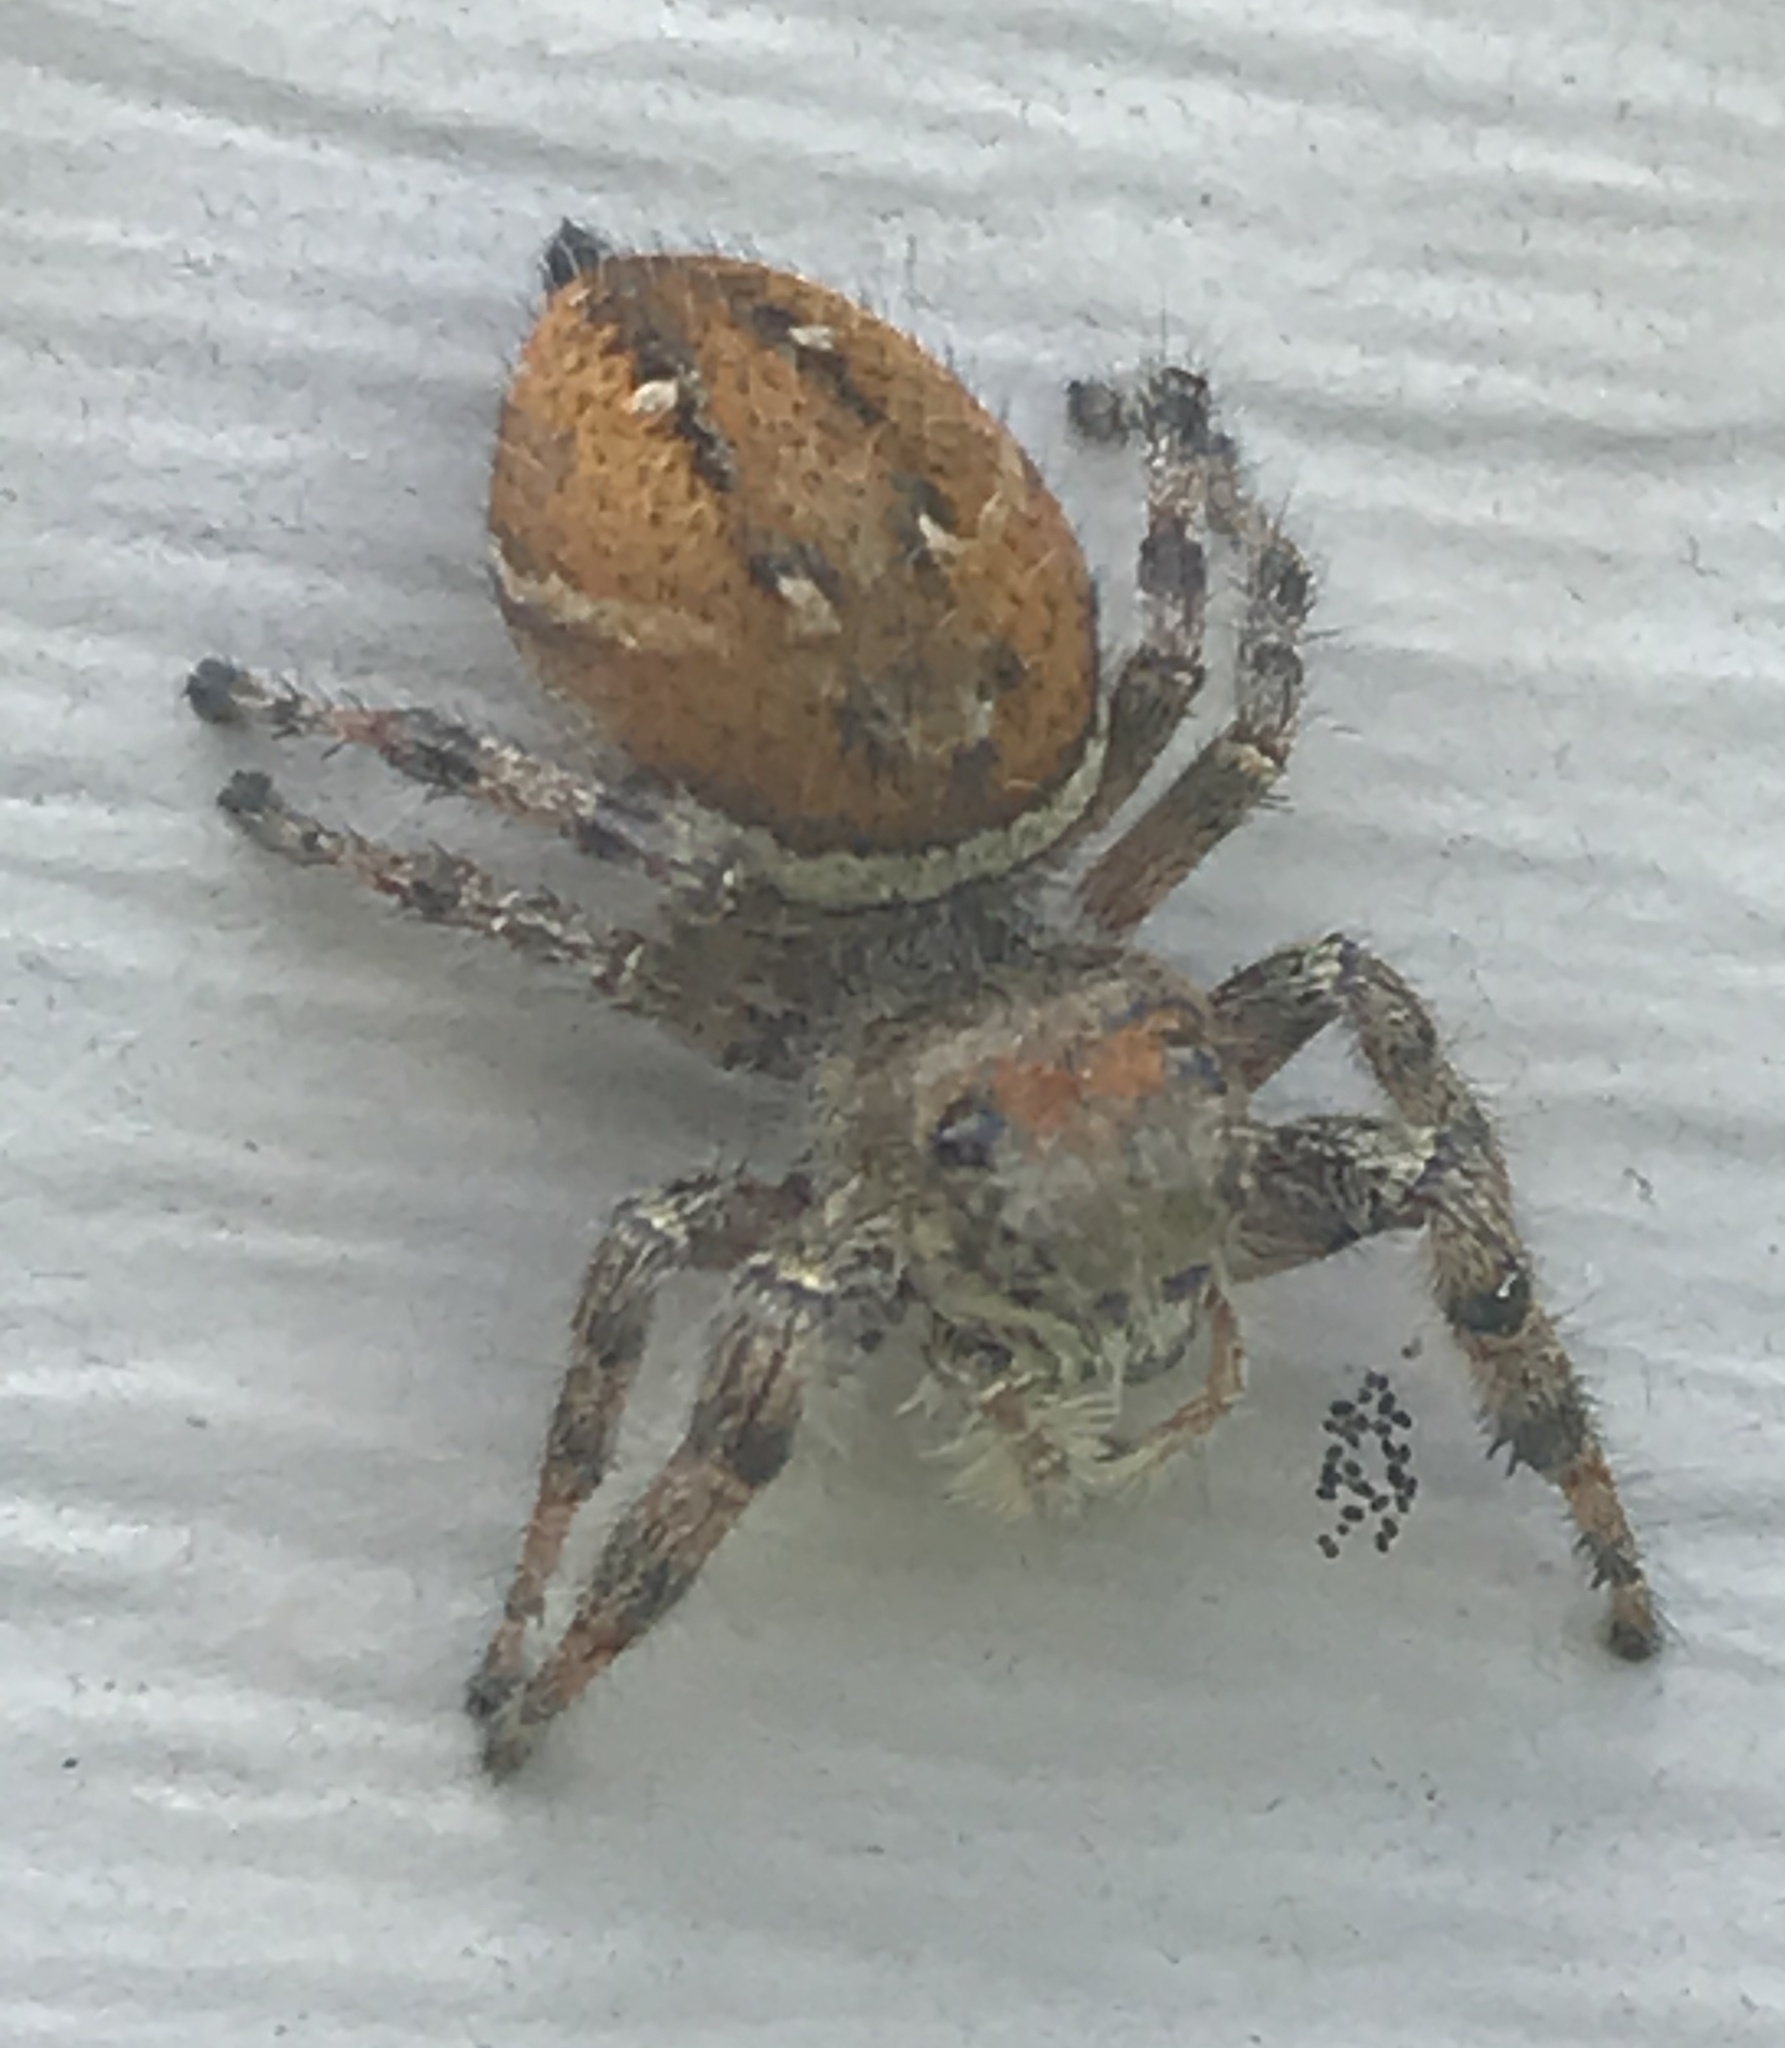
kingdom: Animalia
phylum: Arthropoda
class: Arachnida
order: Araneae
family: Salticidae
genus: Phidippus
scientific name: Phidippus clarus
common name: Brilliant jumping spider
